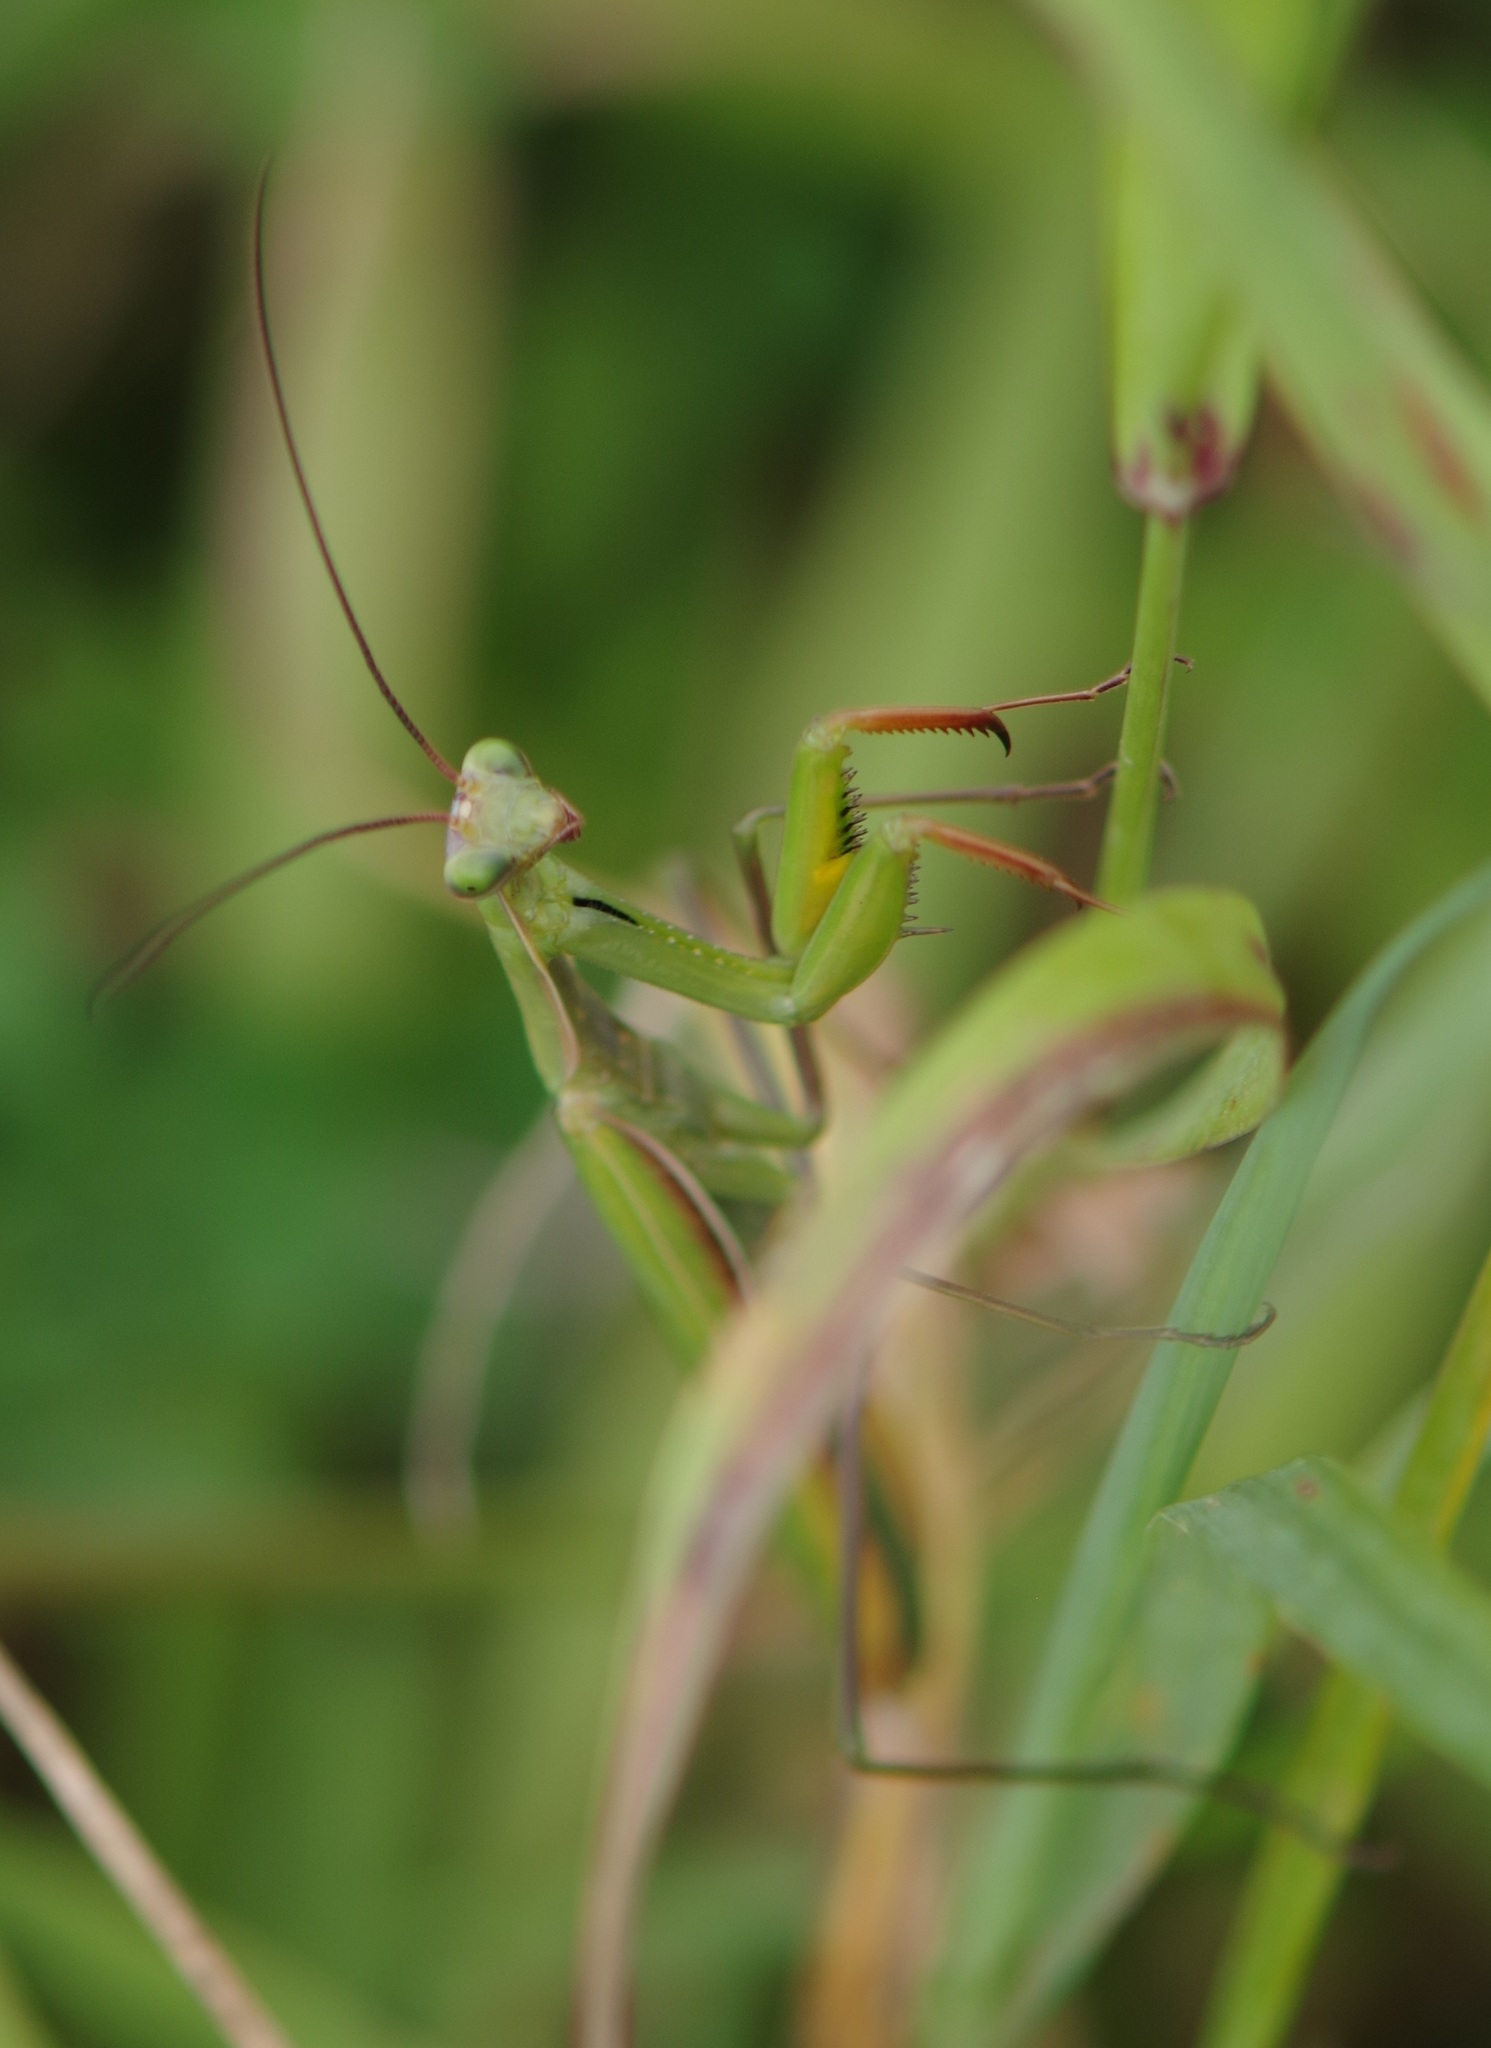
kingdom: Animalia
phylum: Arthropoda
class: Insecta
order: Mantodea
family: Mantidae
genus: Mantis
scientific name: Mantis religiosa
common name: Praying mantis
